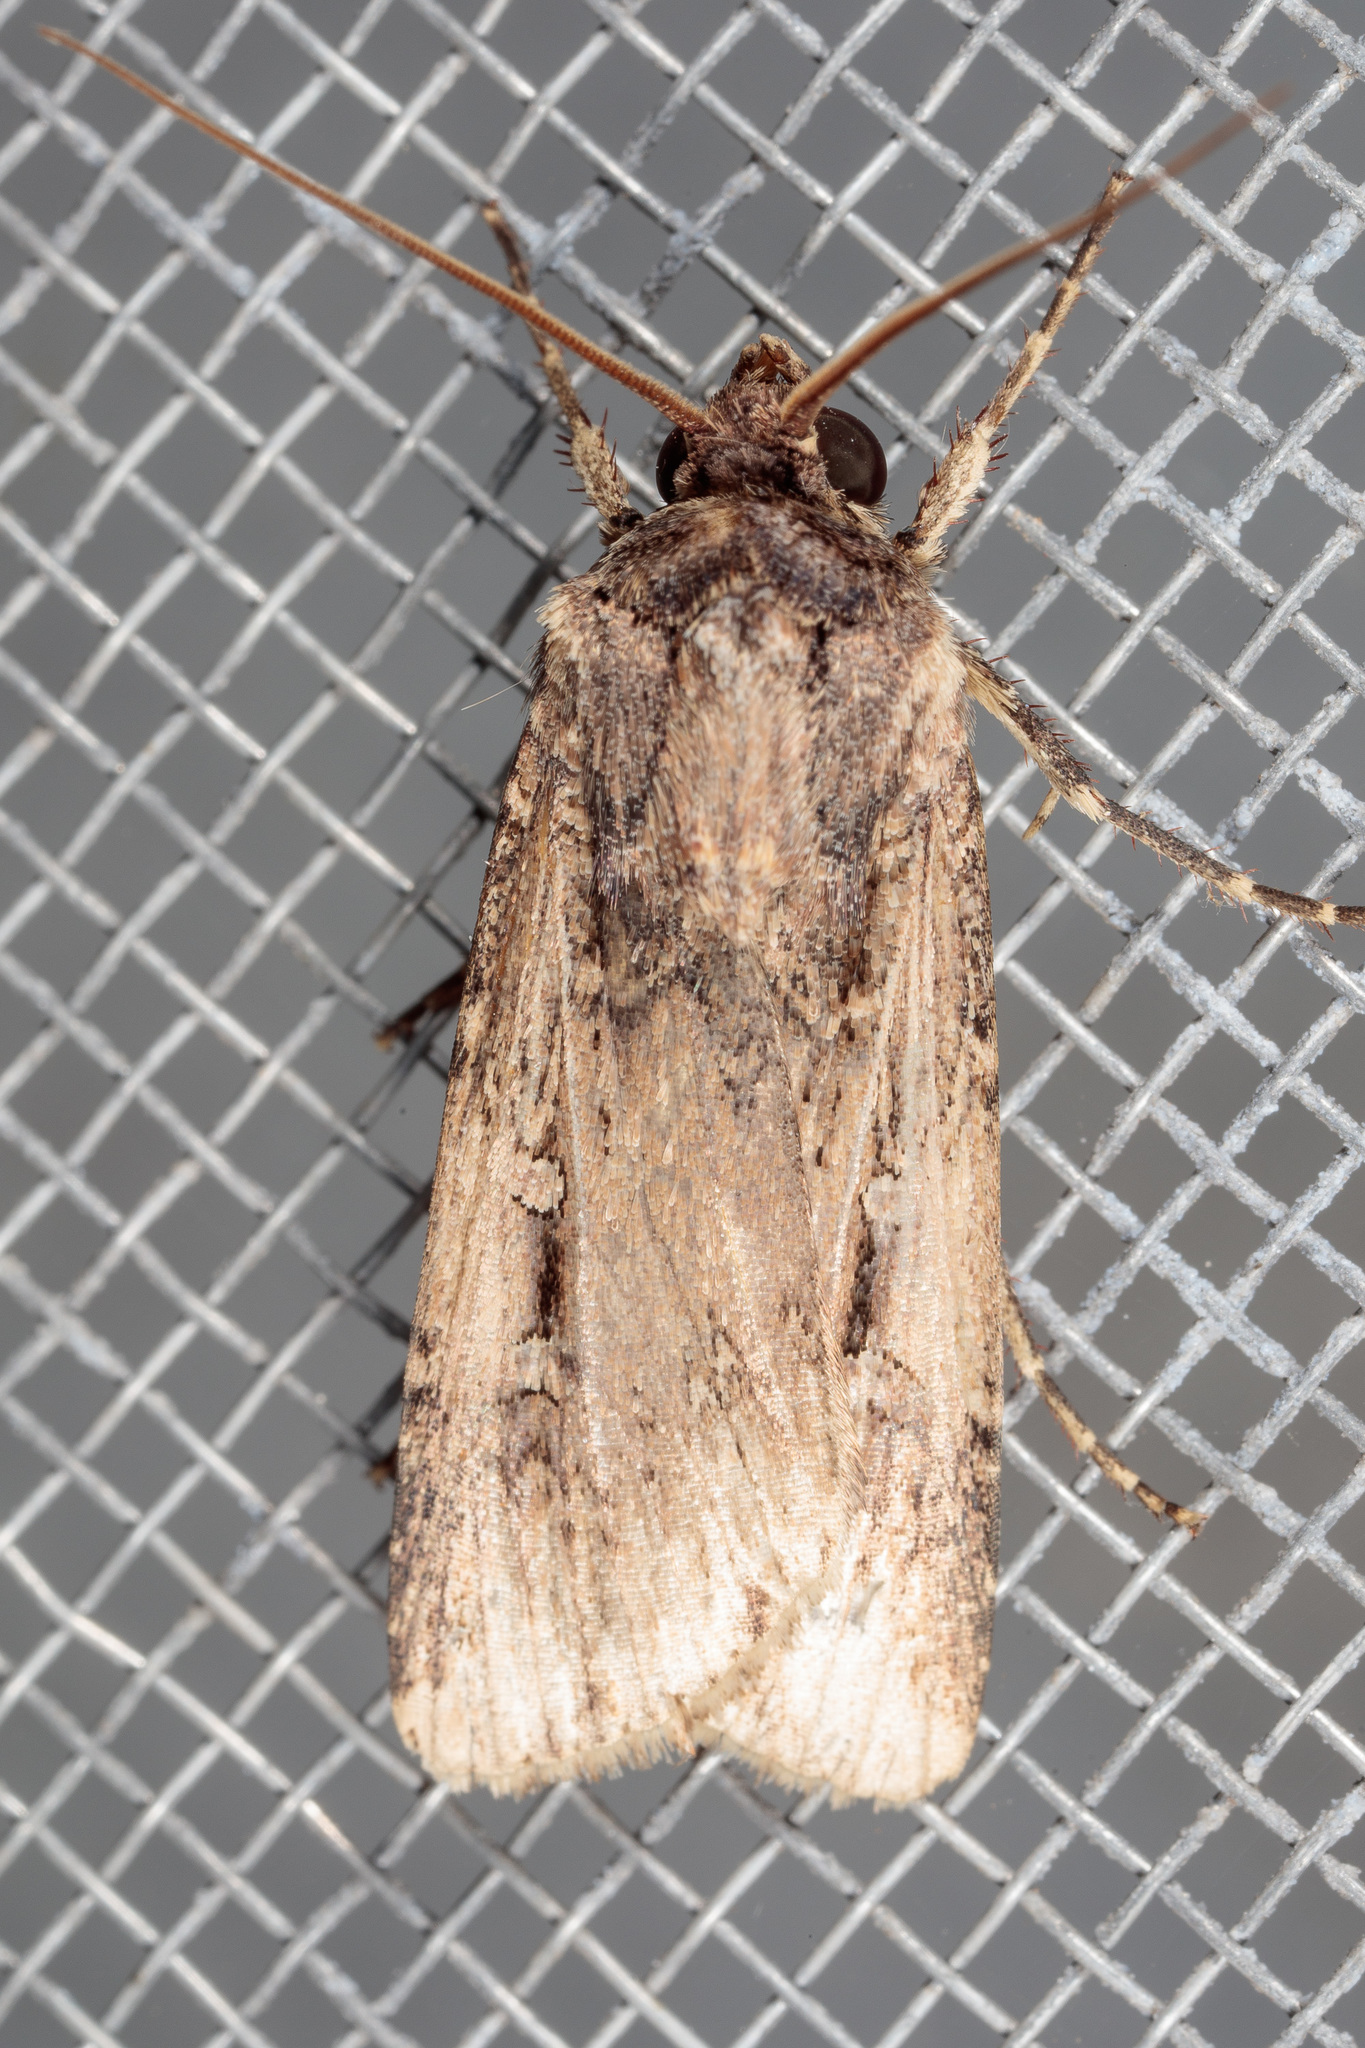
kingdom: Animalia
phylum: Arthropoda
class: Insecta
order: Lepidoptera
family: Noctuidae
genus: Feltia
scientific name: Feltia subterranea
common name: Granulate cutworm
